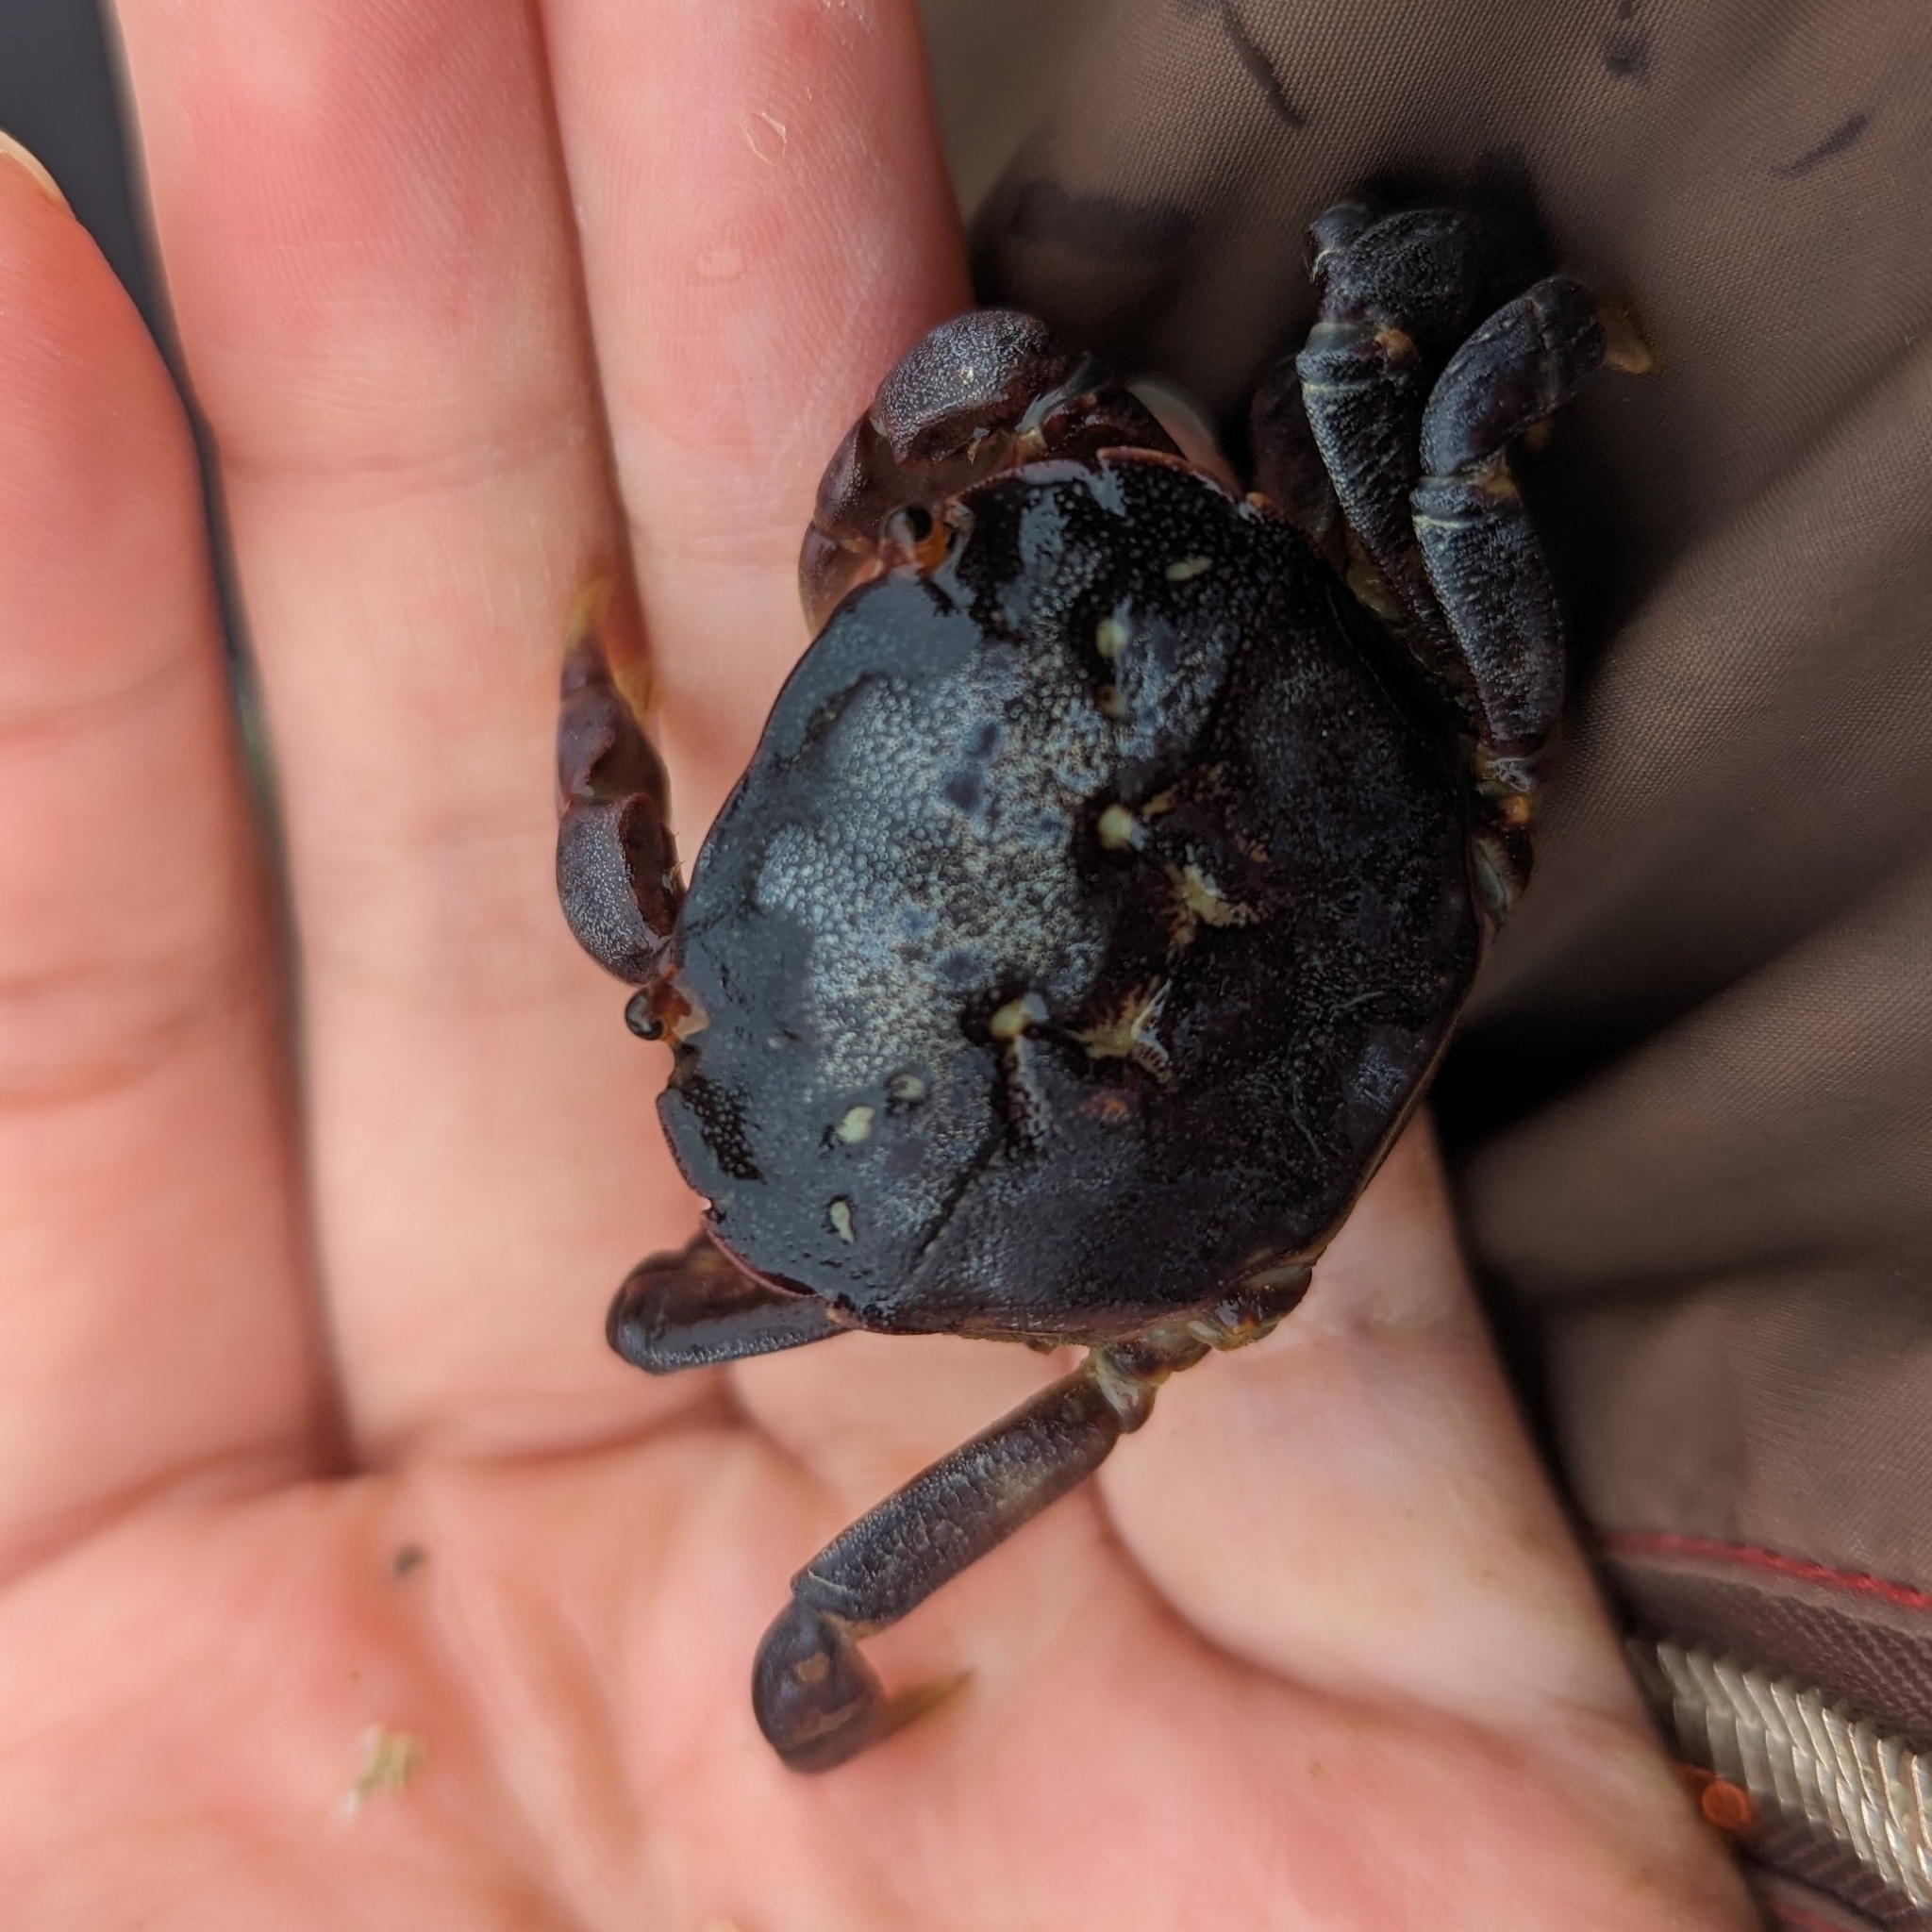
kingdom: Animalia
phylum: Arthropoda
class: Malacostraca
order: Decapoda
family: Varunidae
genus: Hemigrapsus
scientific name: Hemigrapsus nudus
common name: Purple shore crab
